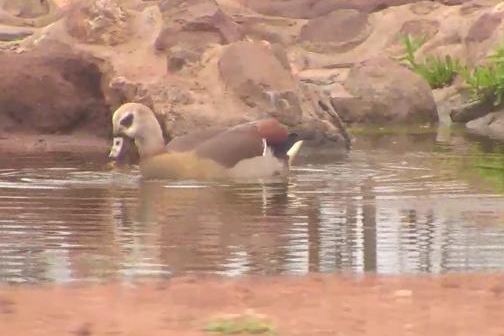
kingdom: Animalia
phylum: Chordata
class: Aves
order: Anseriformes
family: Anatidae
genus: Alopochen
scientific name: Alopochen aegyptiaca
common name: Egyptian goose
